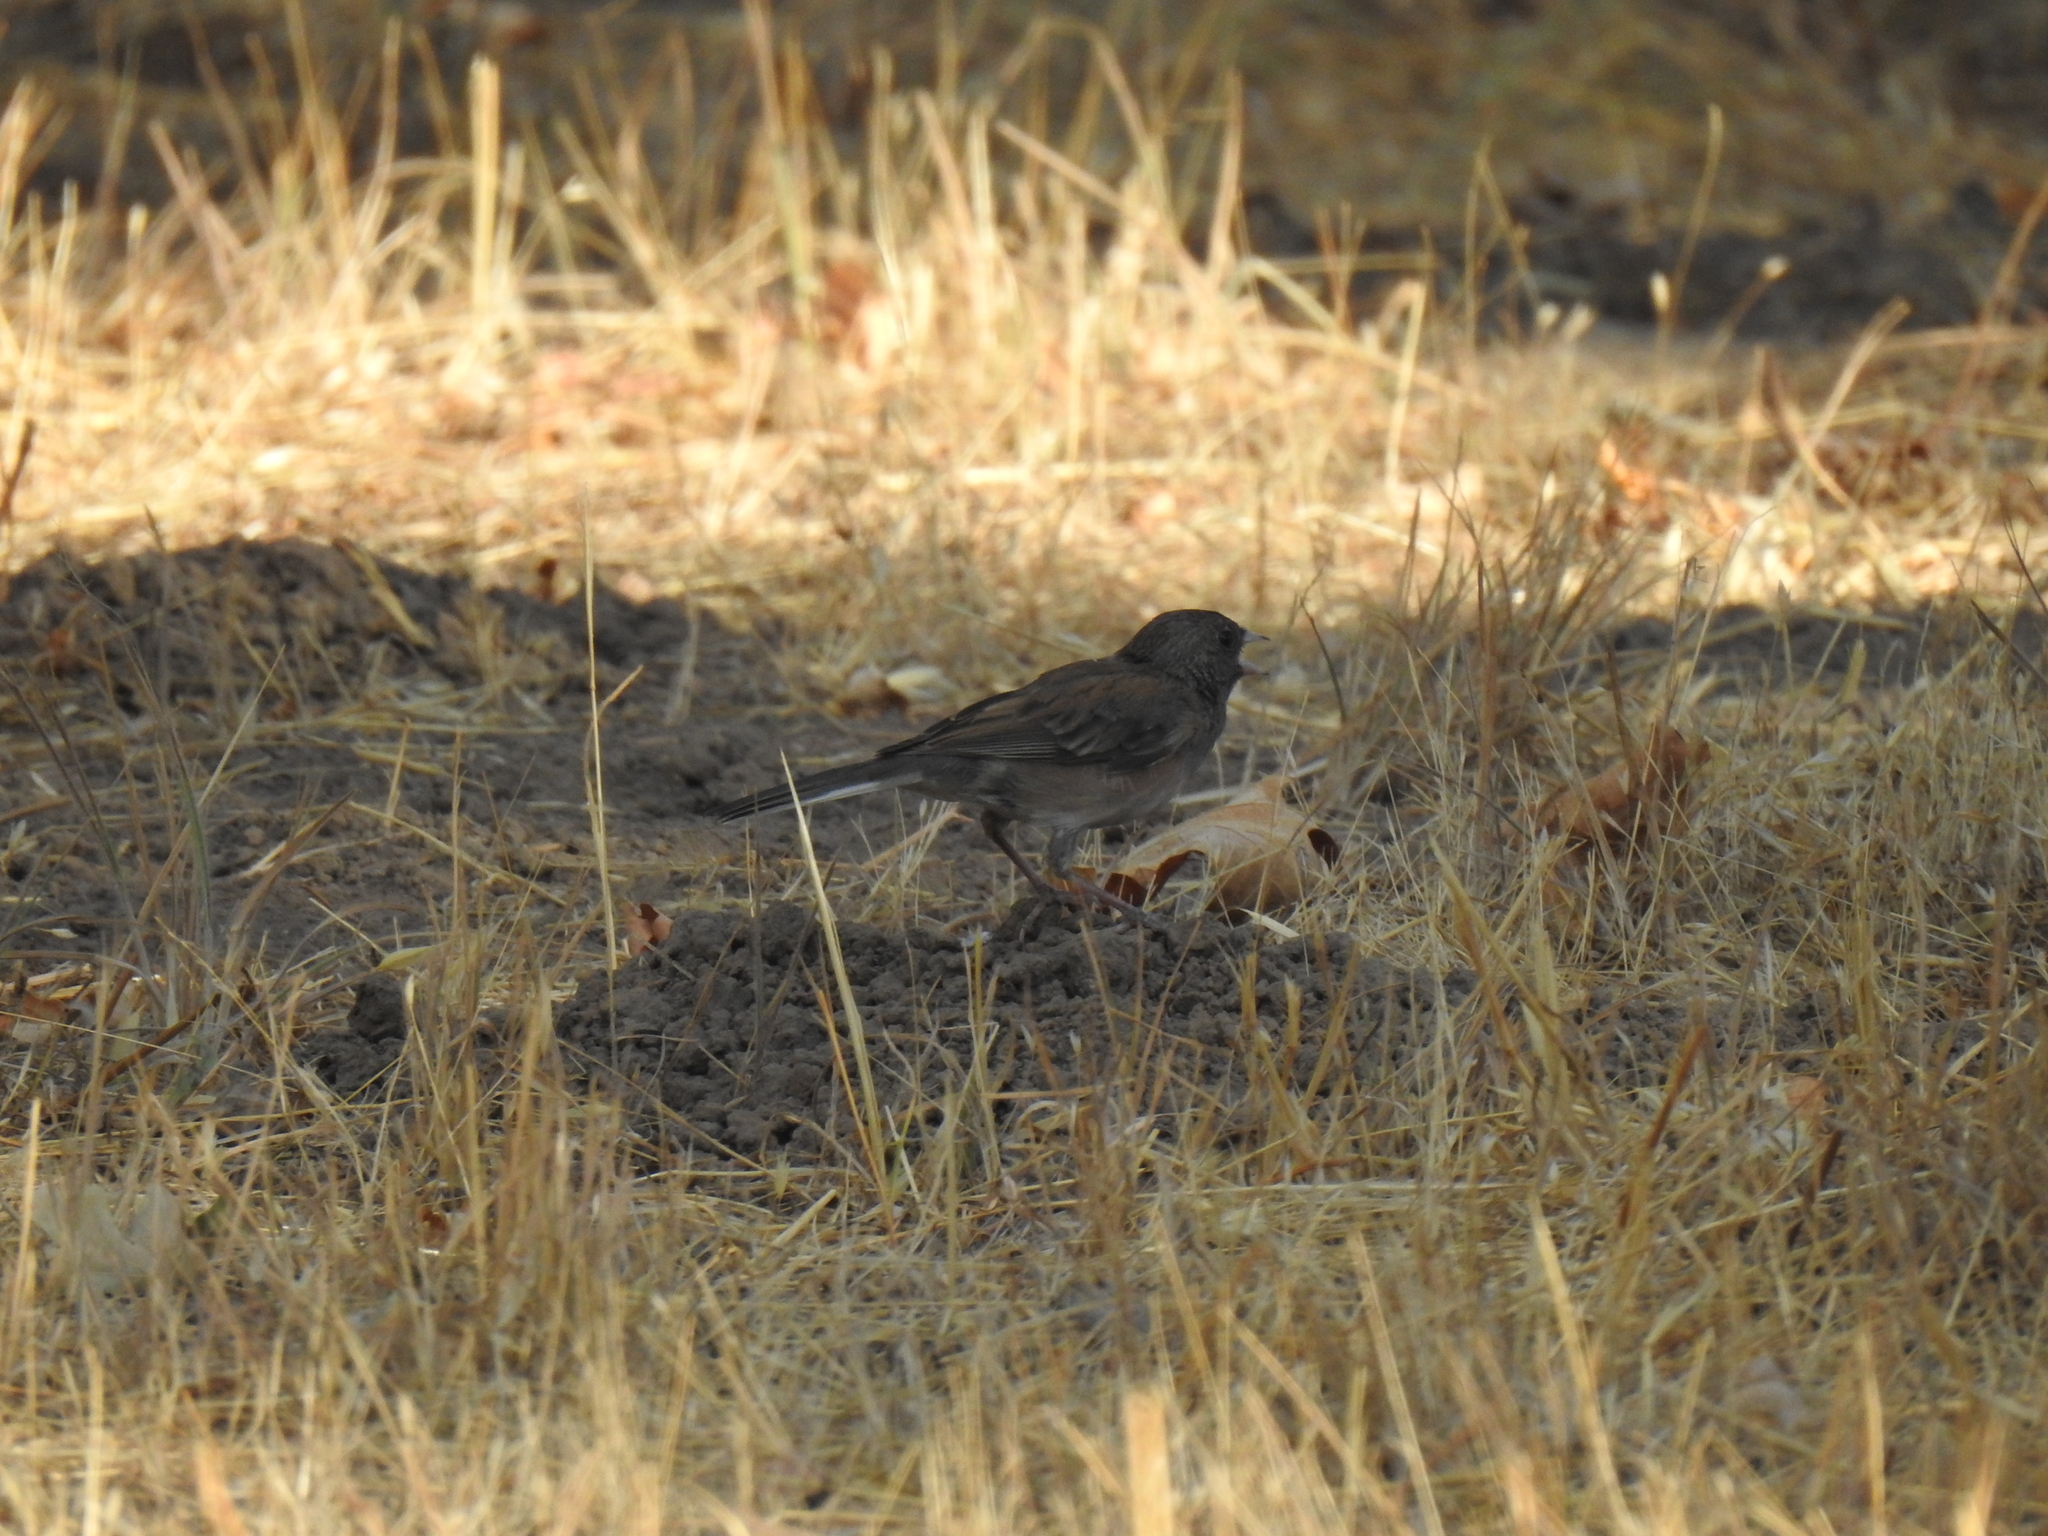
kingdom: Animalia
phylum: Chordata
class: Aves
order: Passeriformes
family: Passerellidae
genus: Junco
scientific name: Junco hyemalis
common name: Dark-eyed junco
